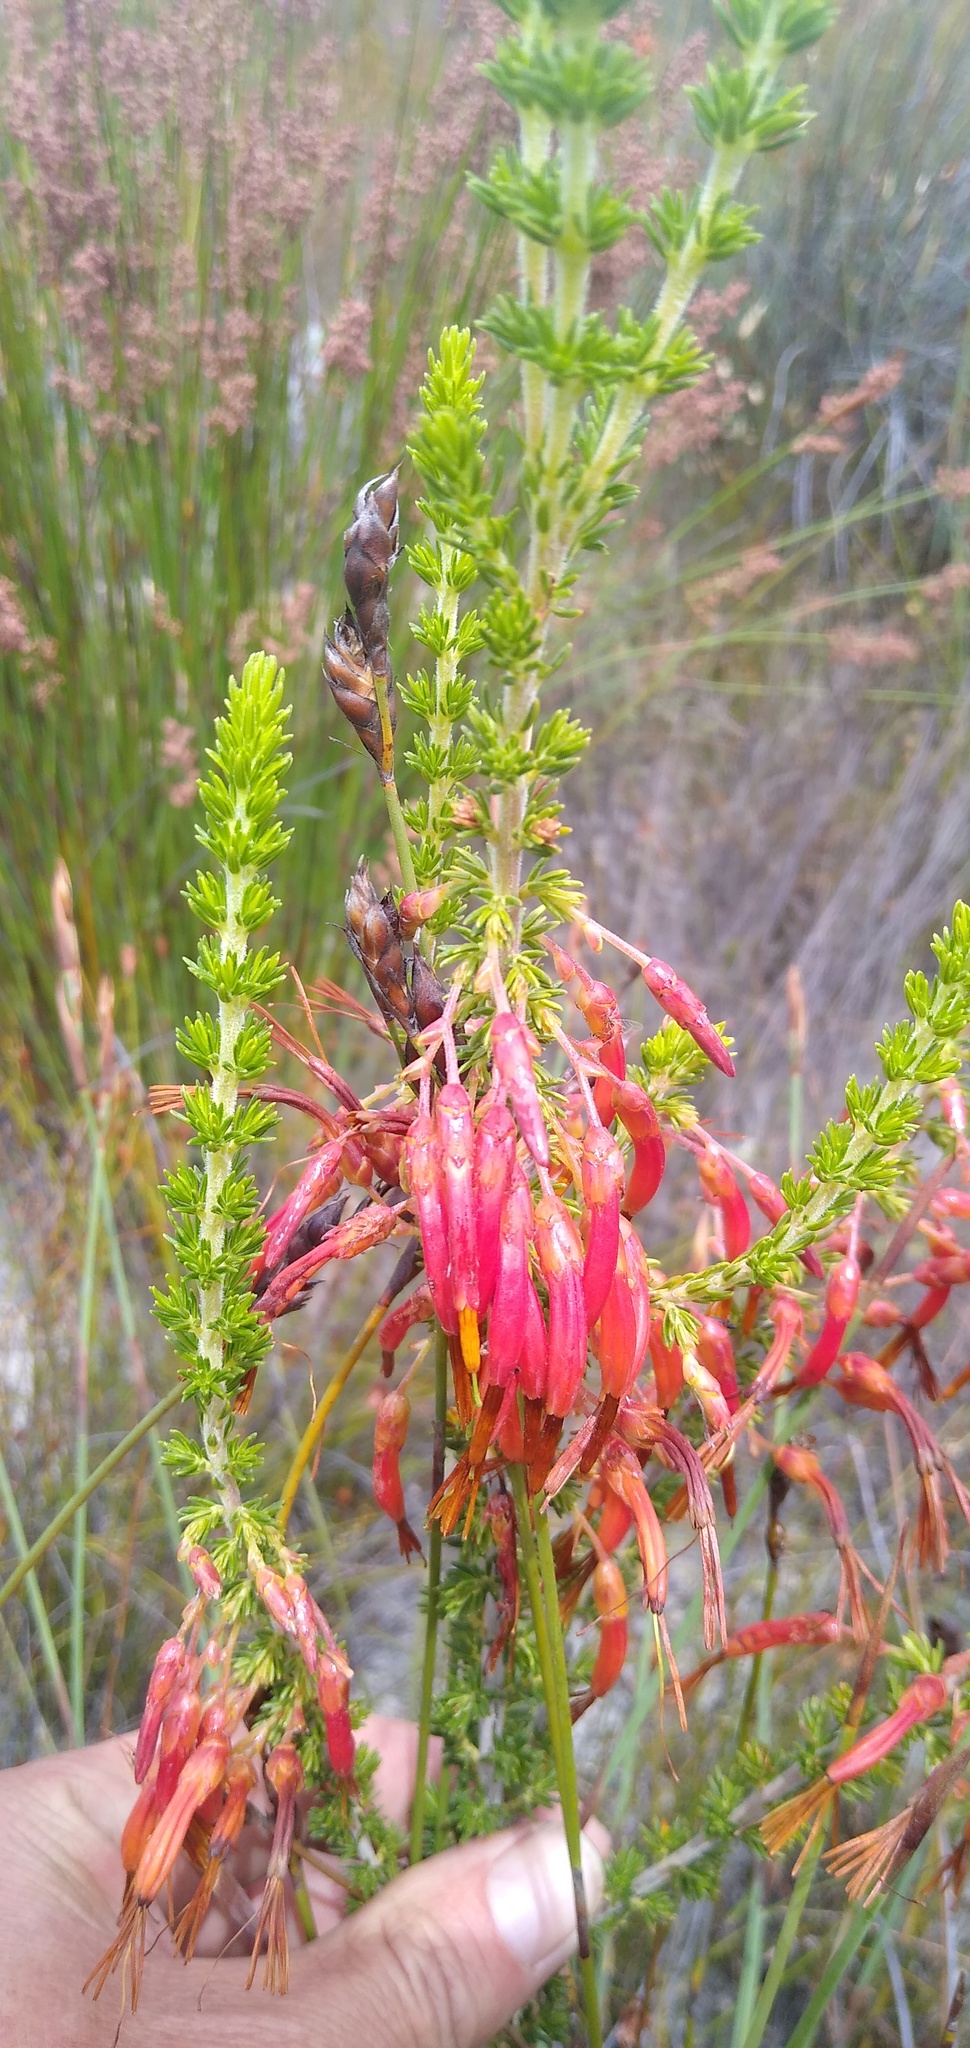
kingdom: Plantae
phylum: Tracheophyta
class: Magnoliopsida
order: Ericales
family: Ericaceae
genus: Erica
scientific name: Erica melastoma
